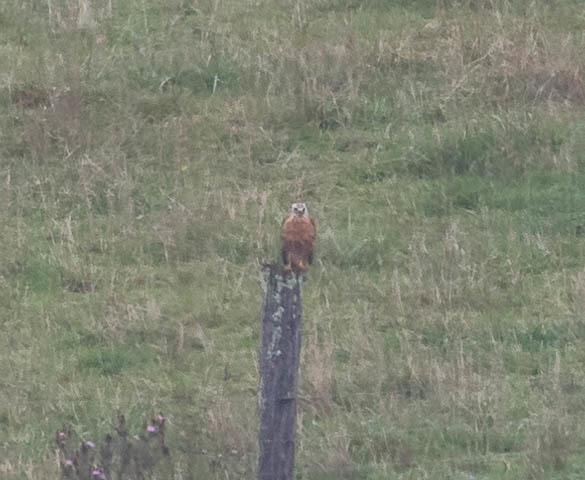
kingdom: Animalia
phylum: Chordata
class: Aves
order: Accipitriformes
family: Accipitridae
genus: Buteo
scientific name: Buteo lineatus
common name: Red-shouldered hawk
